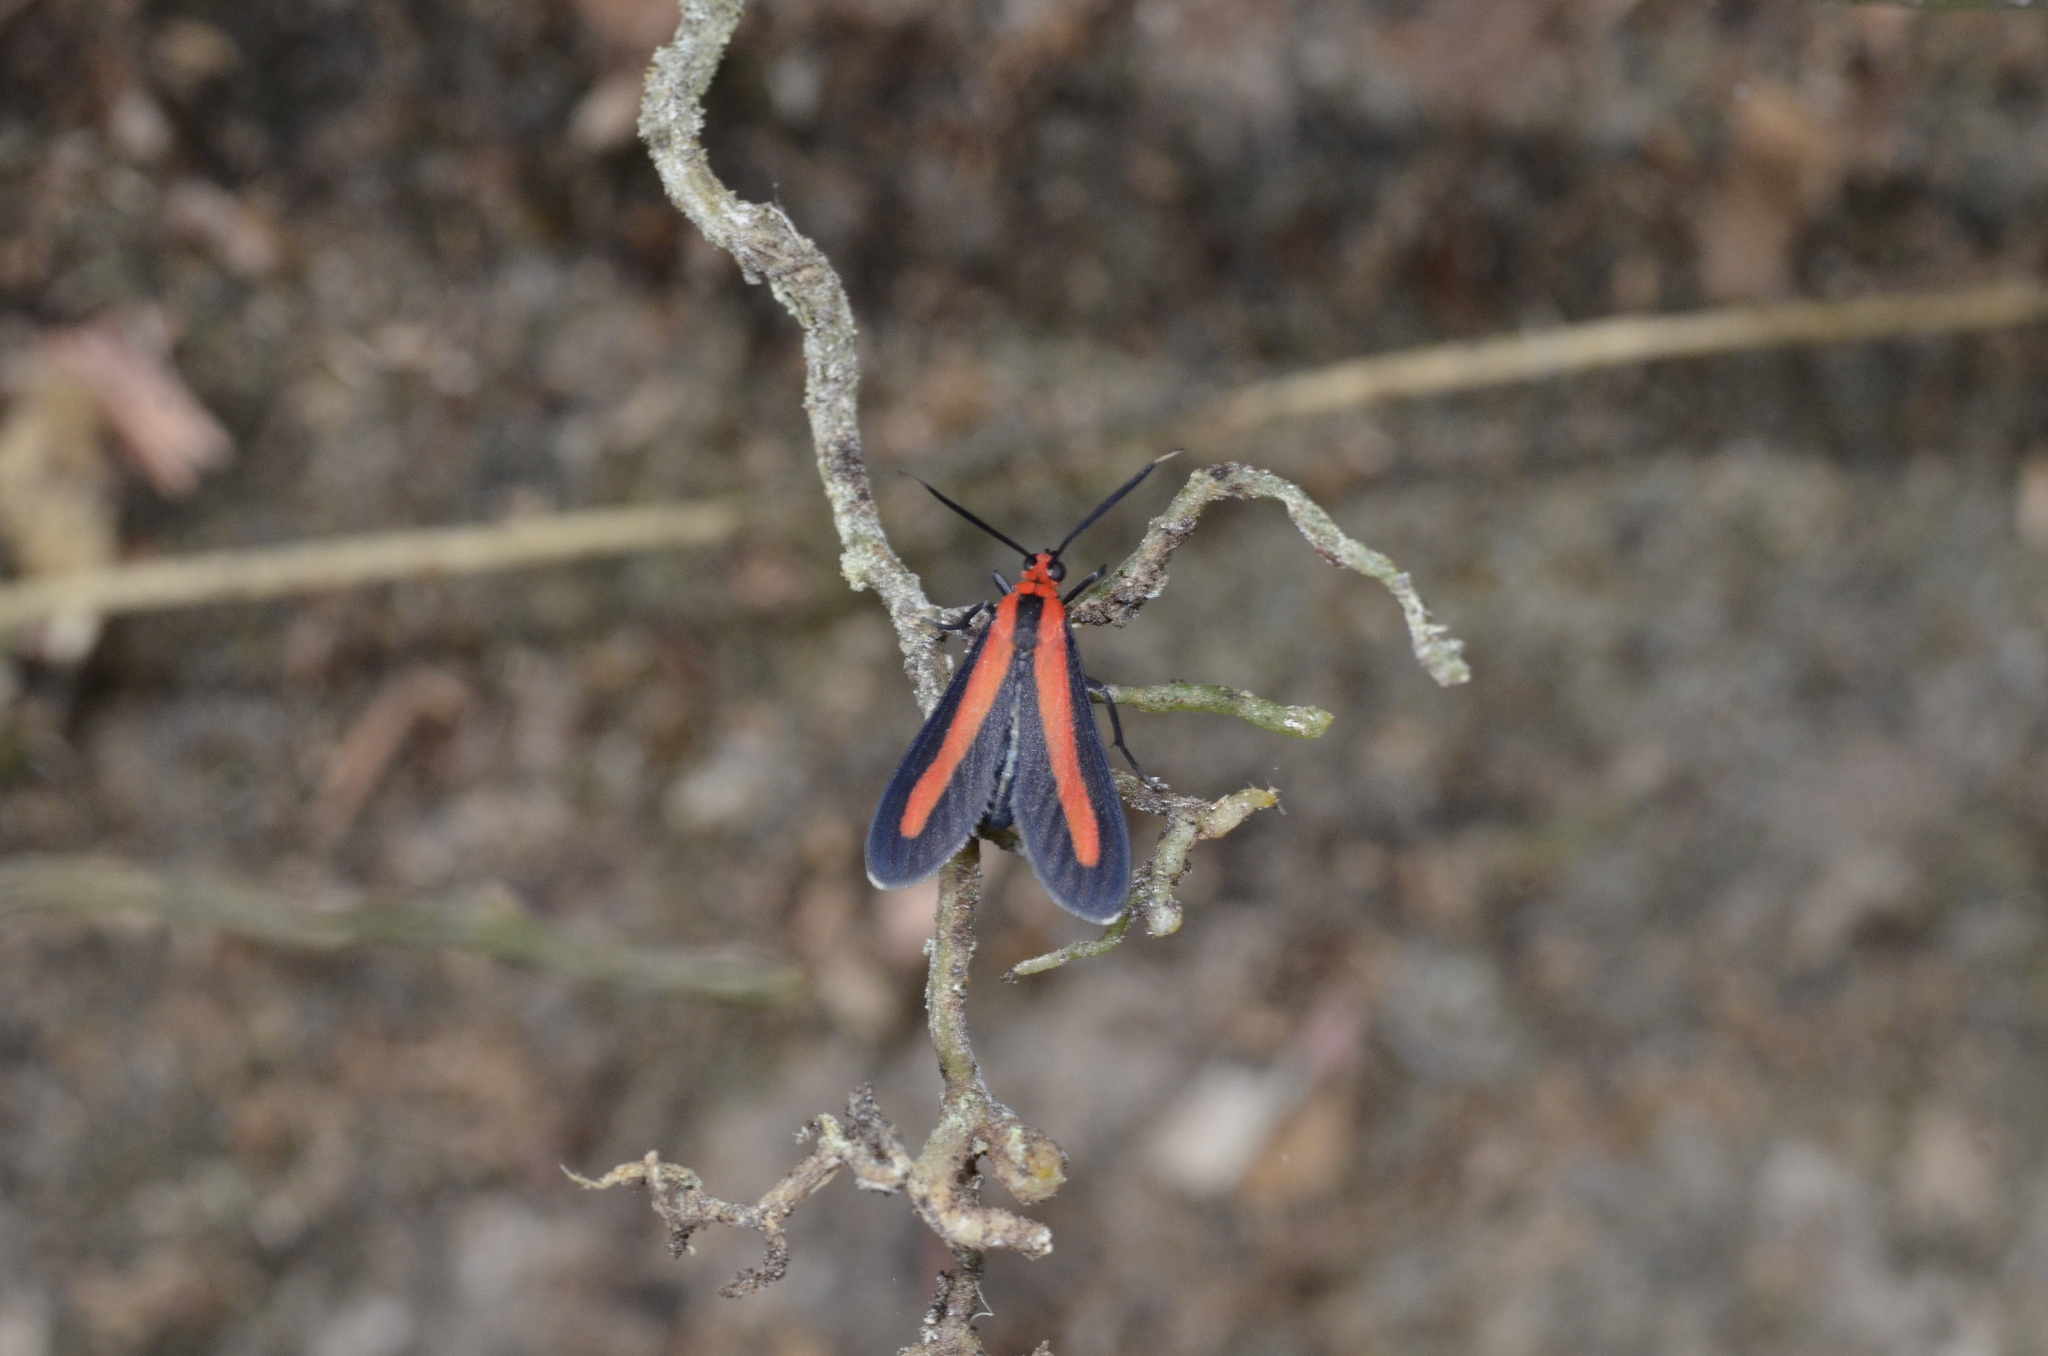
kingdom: Animalia
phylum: Arthropoda
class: Insecta
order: Lepidoptera
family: Erebidae
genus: Tipulodes
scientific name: Tipulodes rubriceps
